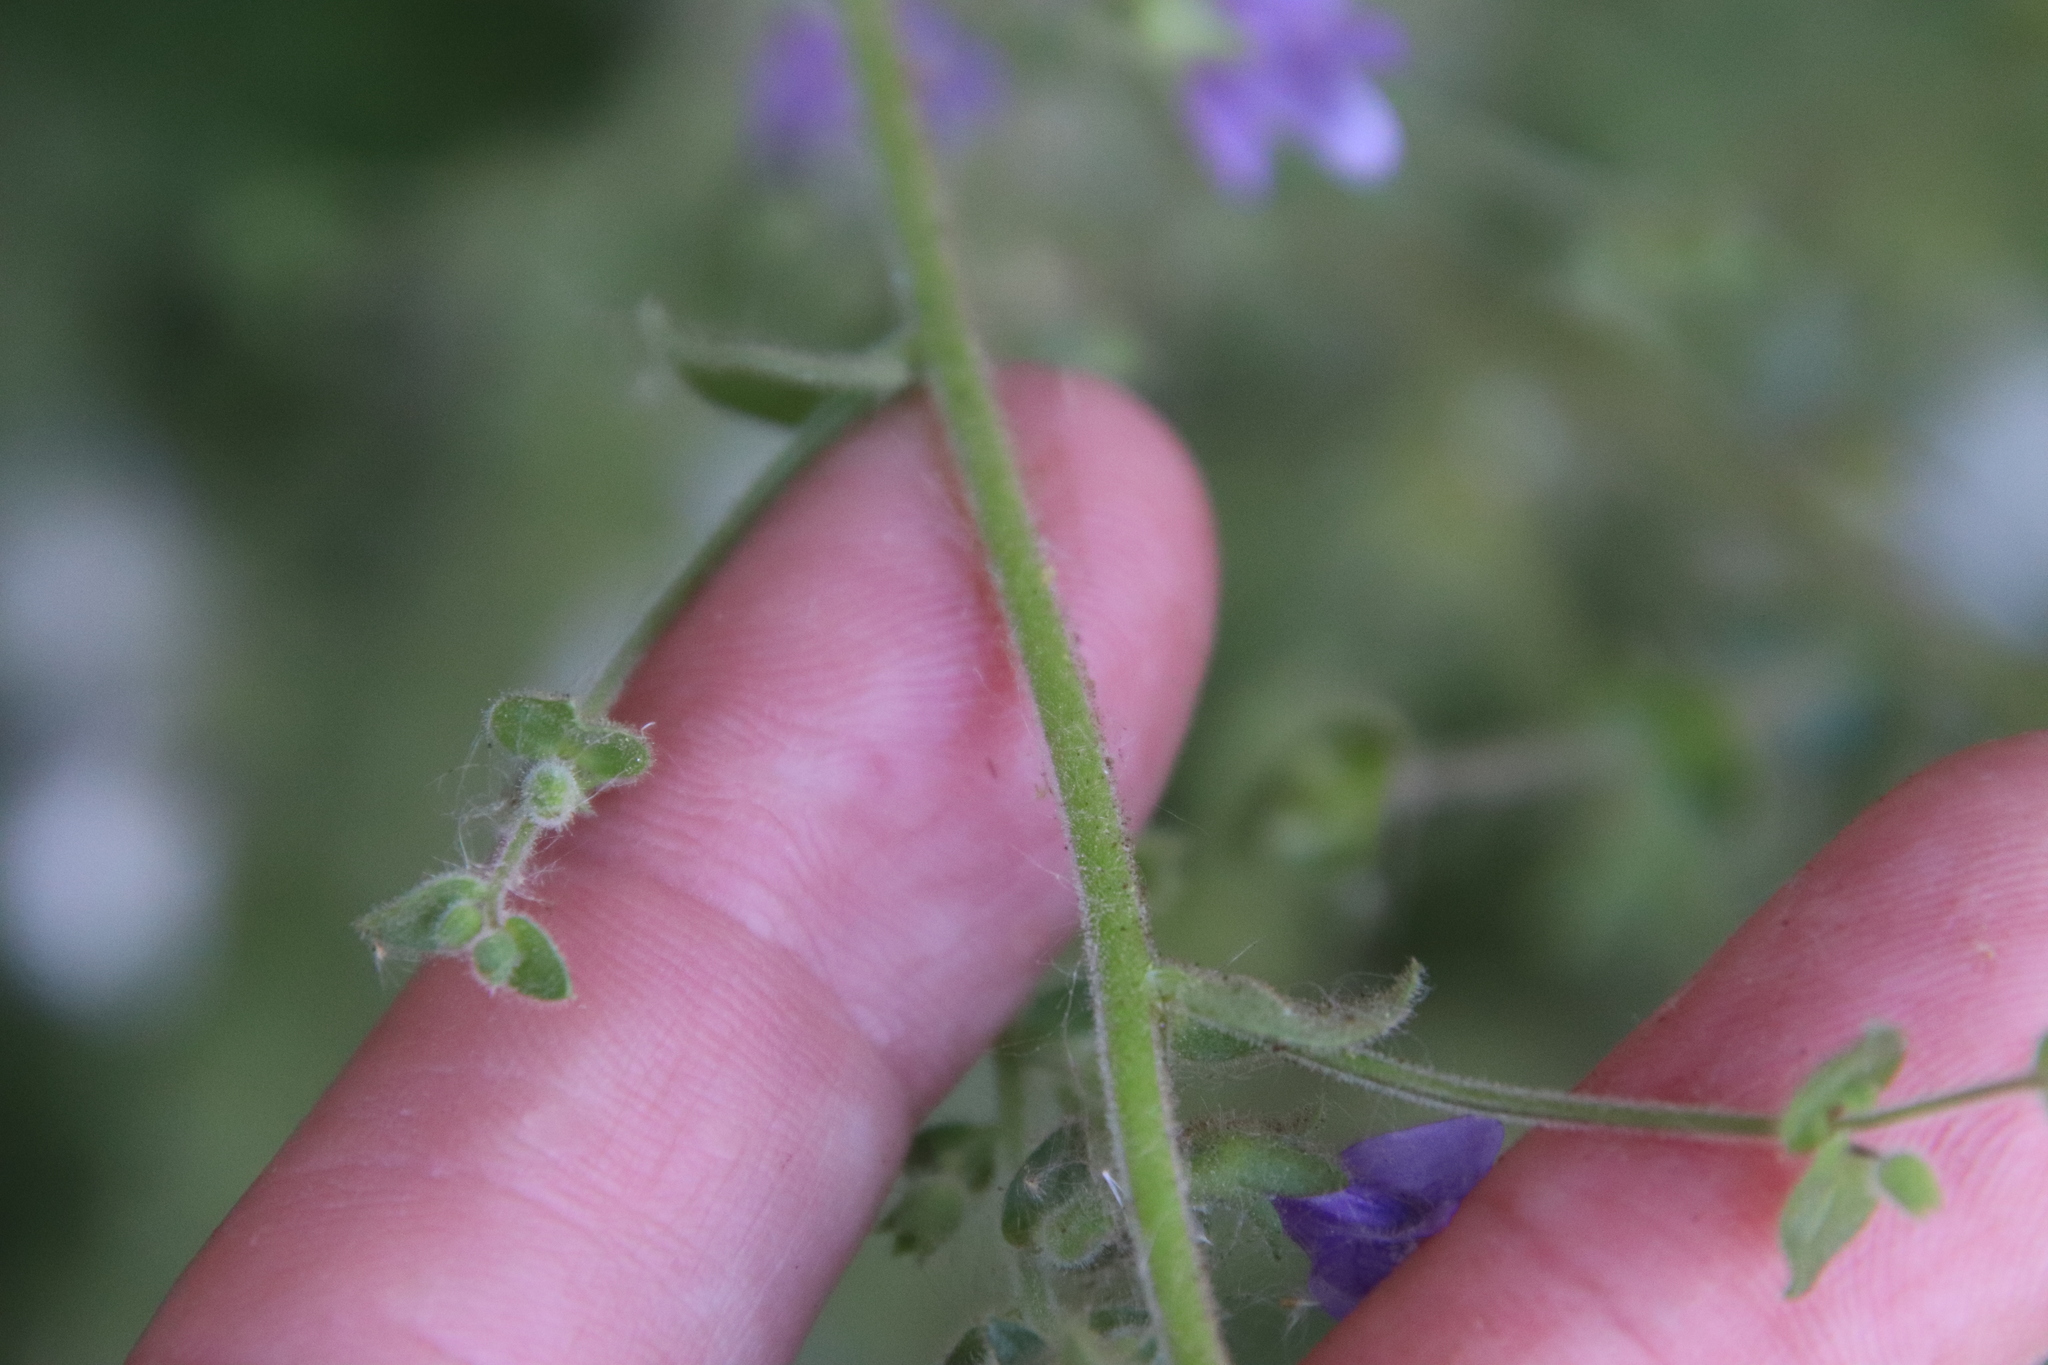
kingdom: Plantae
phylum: Tracheophyta
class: Magnoliopsida
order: Lamiales
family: Plantaginaceae
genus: Sairocarpus
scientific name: Sairocarpus nuttallianus
